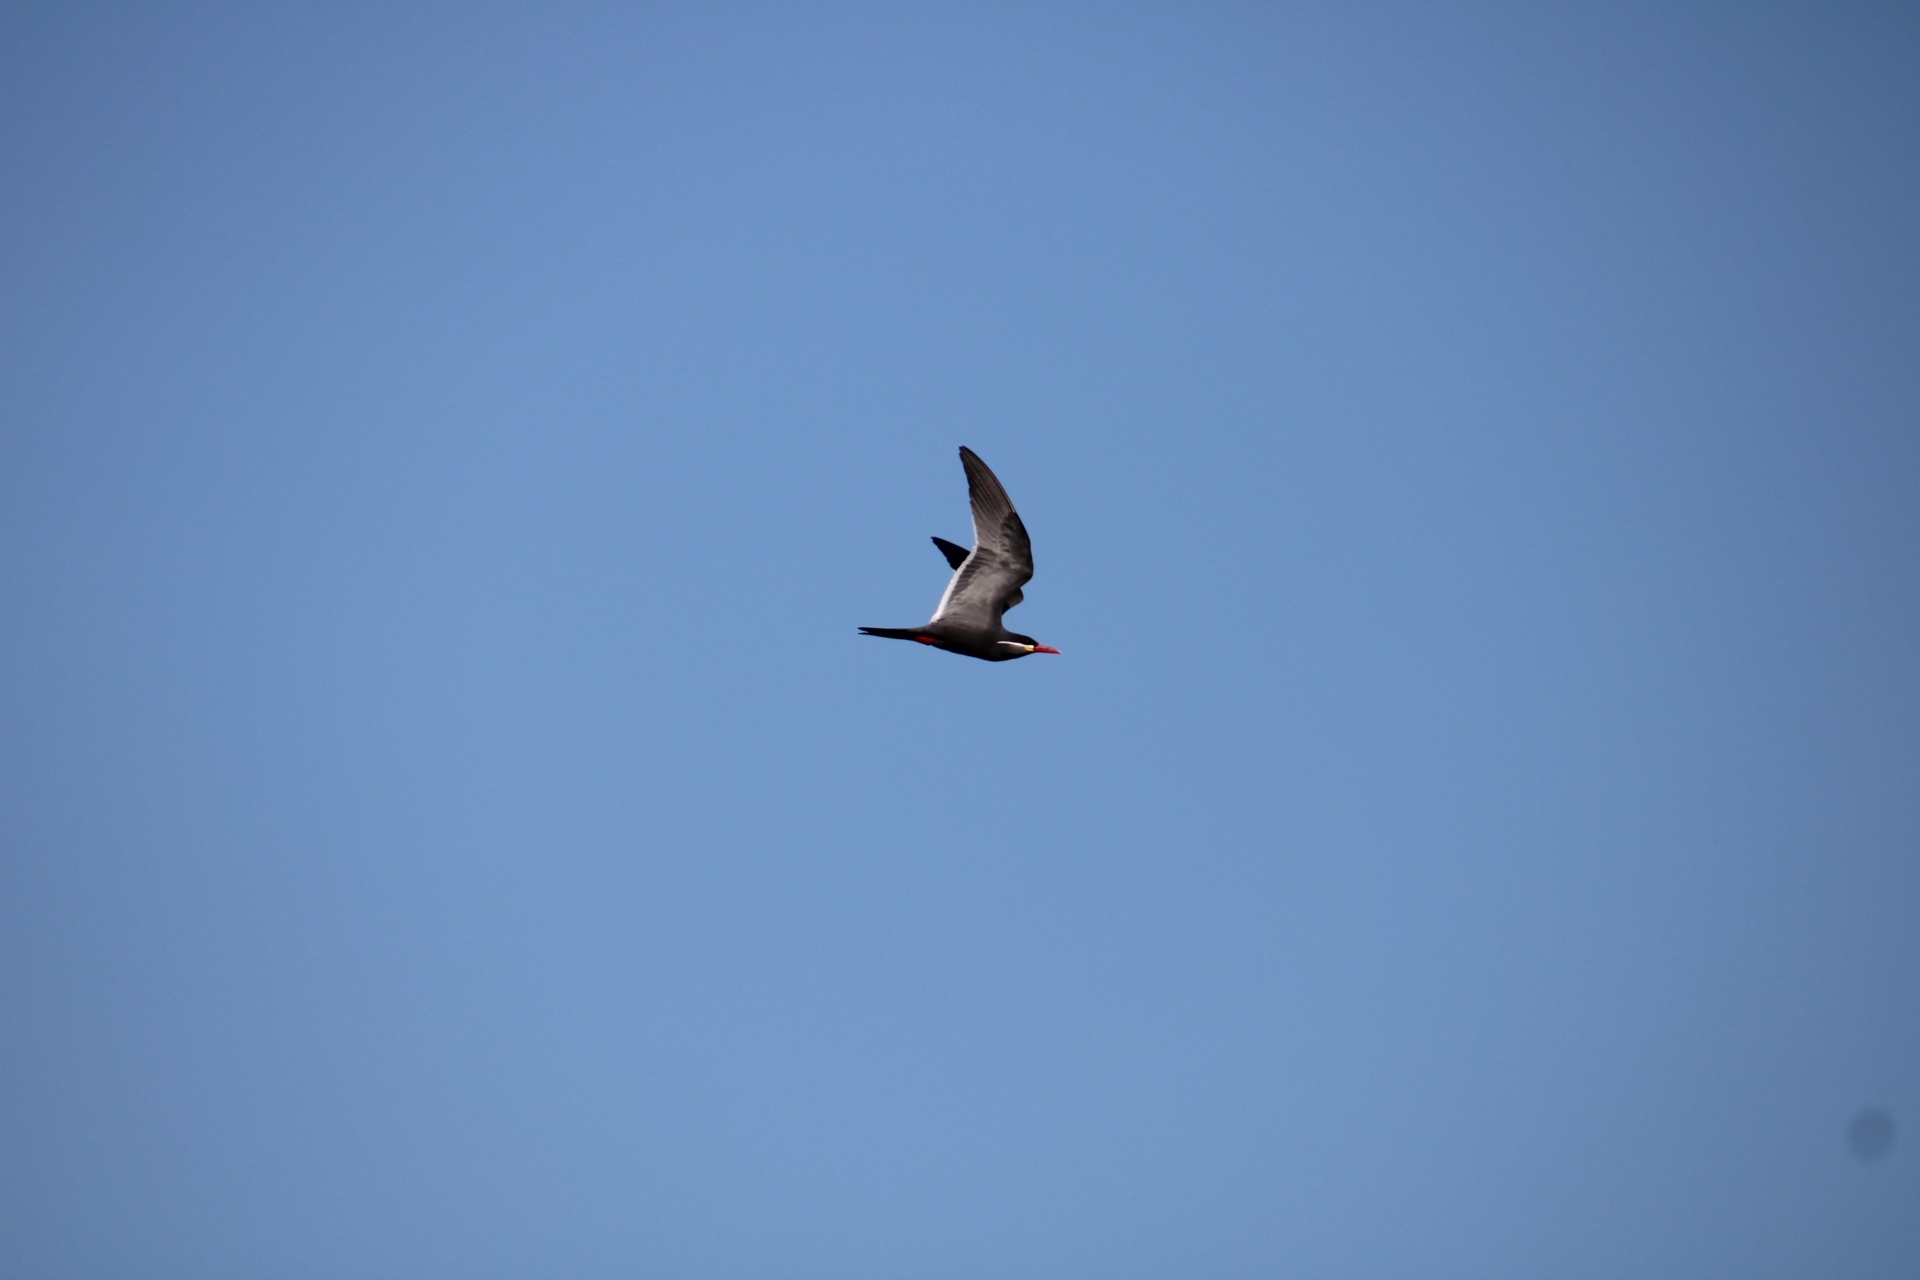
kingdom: Animalia
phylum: Chordata
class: Aves
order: Charadriiformes
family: Laridae
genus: Larosterna
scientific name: Larosterna inca
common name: Inca tern
